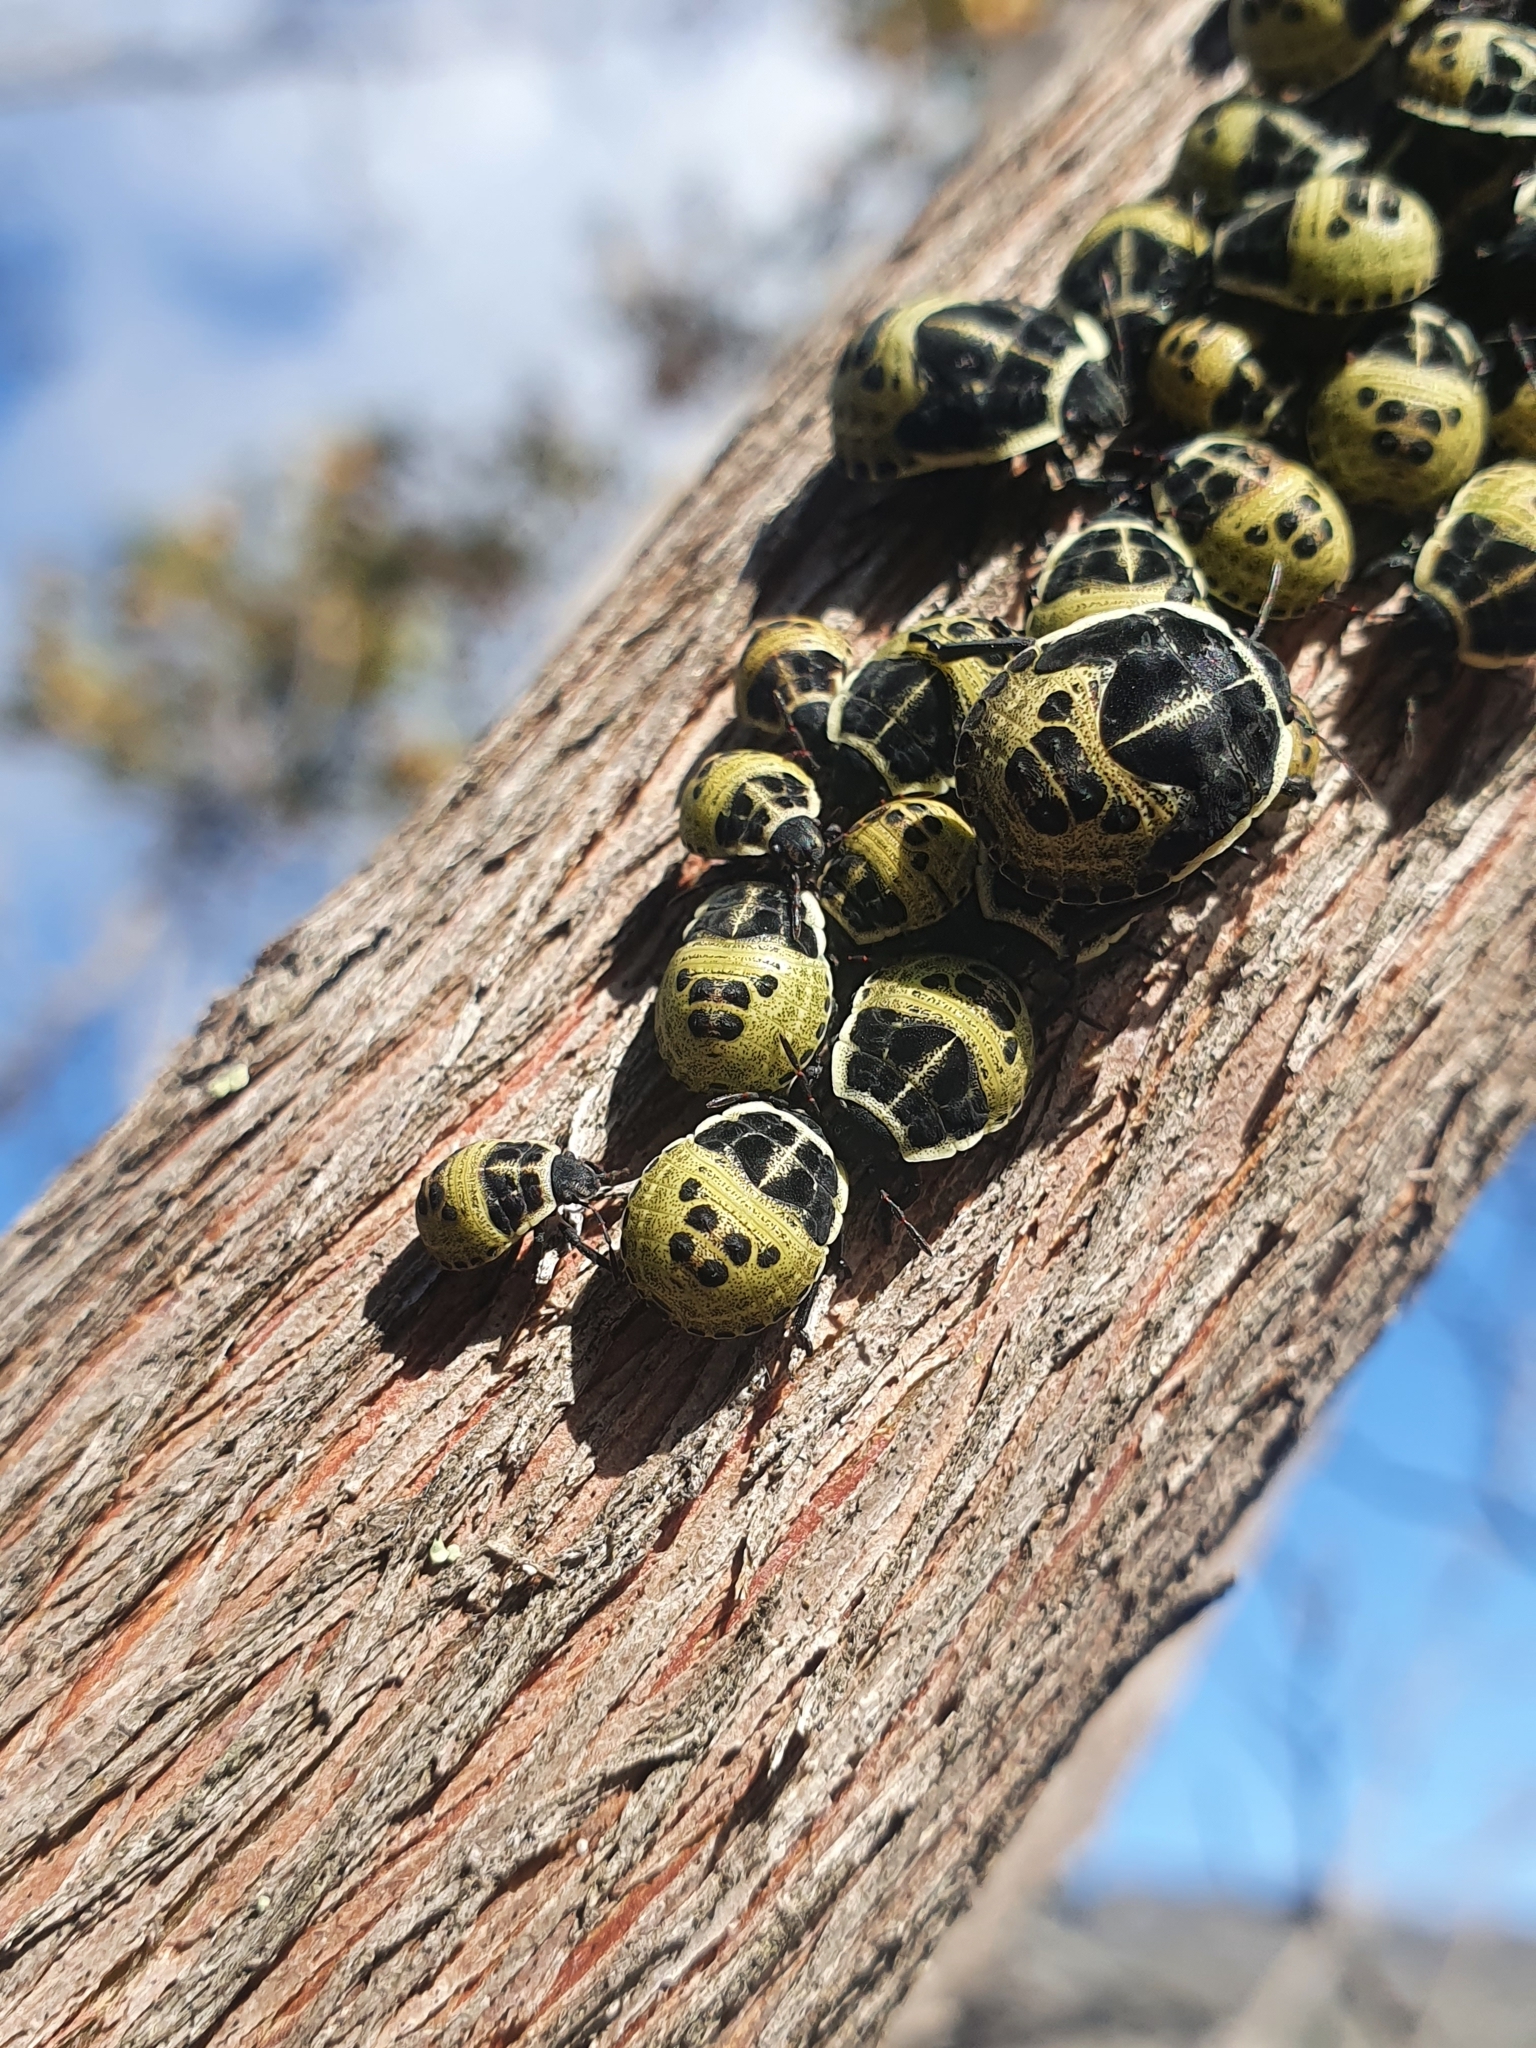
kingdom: Animalia
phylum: Arthropoda
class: Insecta
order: Hemiptera
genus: Deroplax
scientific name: Deroplax silphoides
